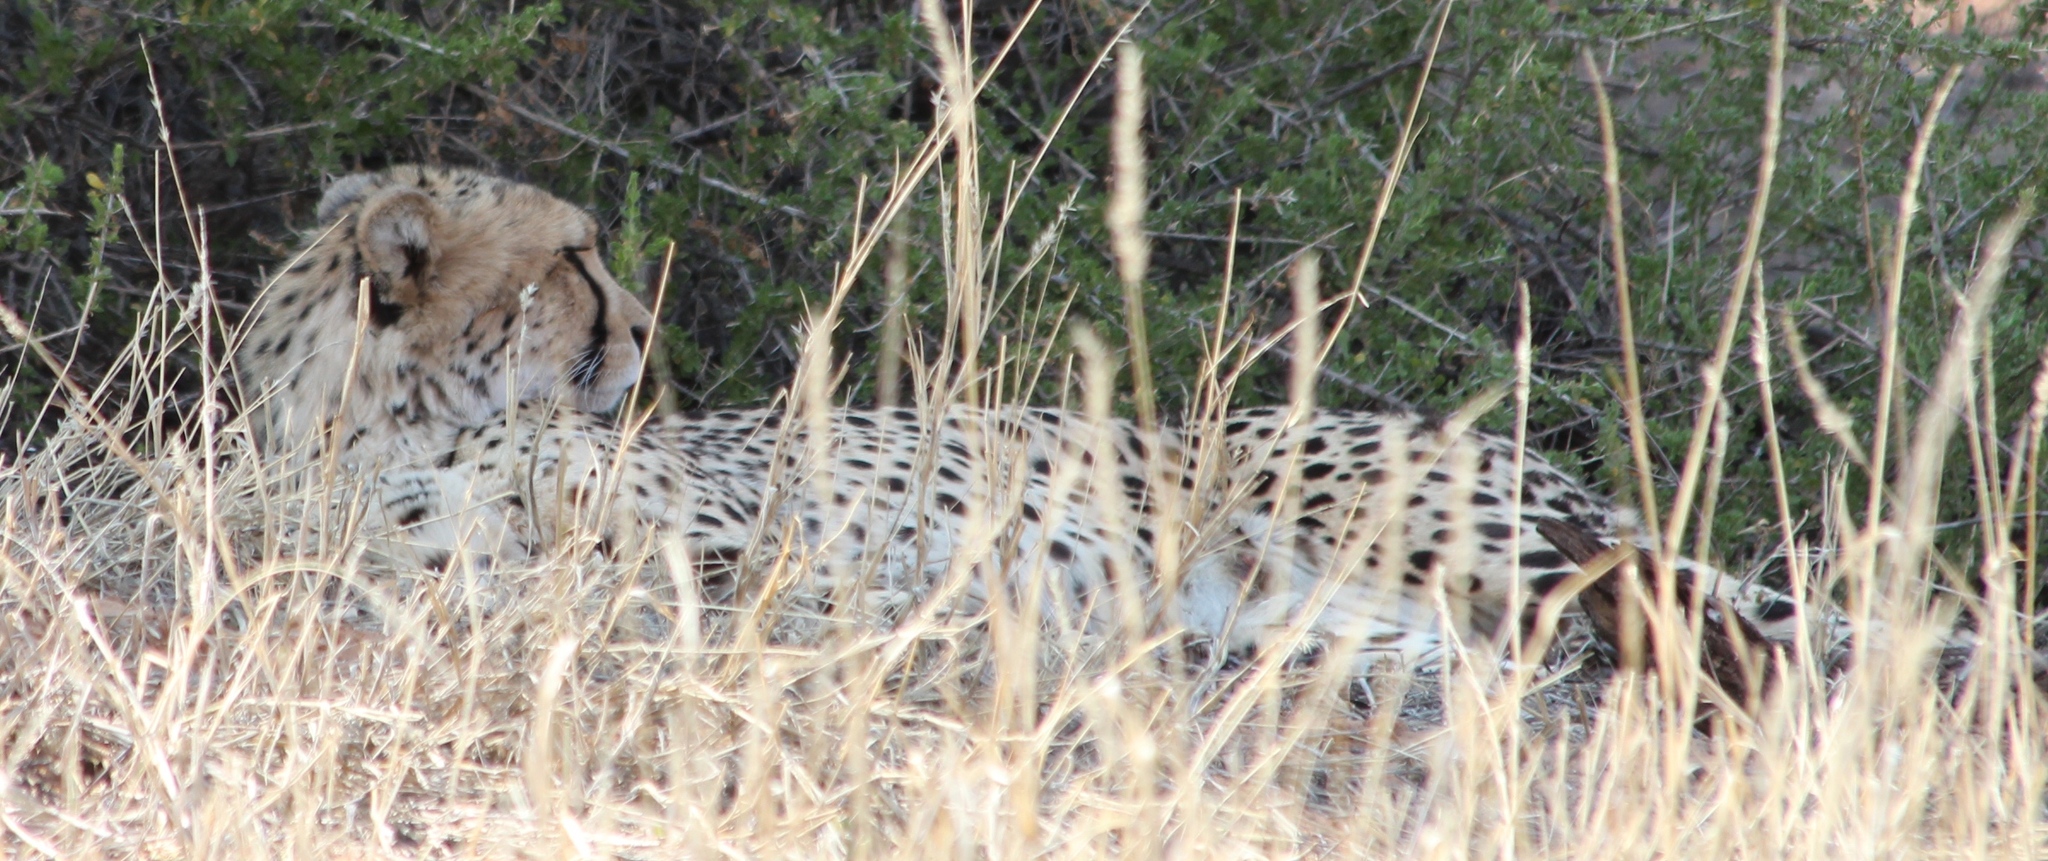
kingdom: Animalia
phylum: Chordata
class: Mammalia
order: Carnivora
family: Felidae
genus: Acinonyx
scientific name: Acinonyx jubatus
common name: Cheetah
